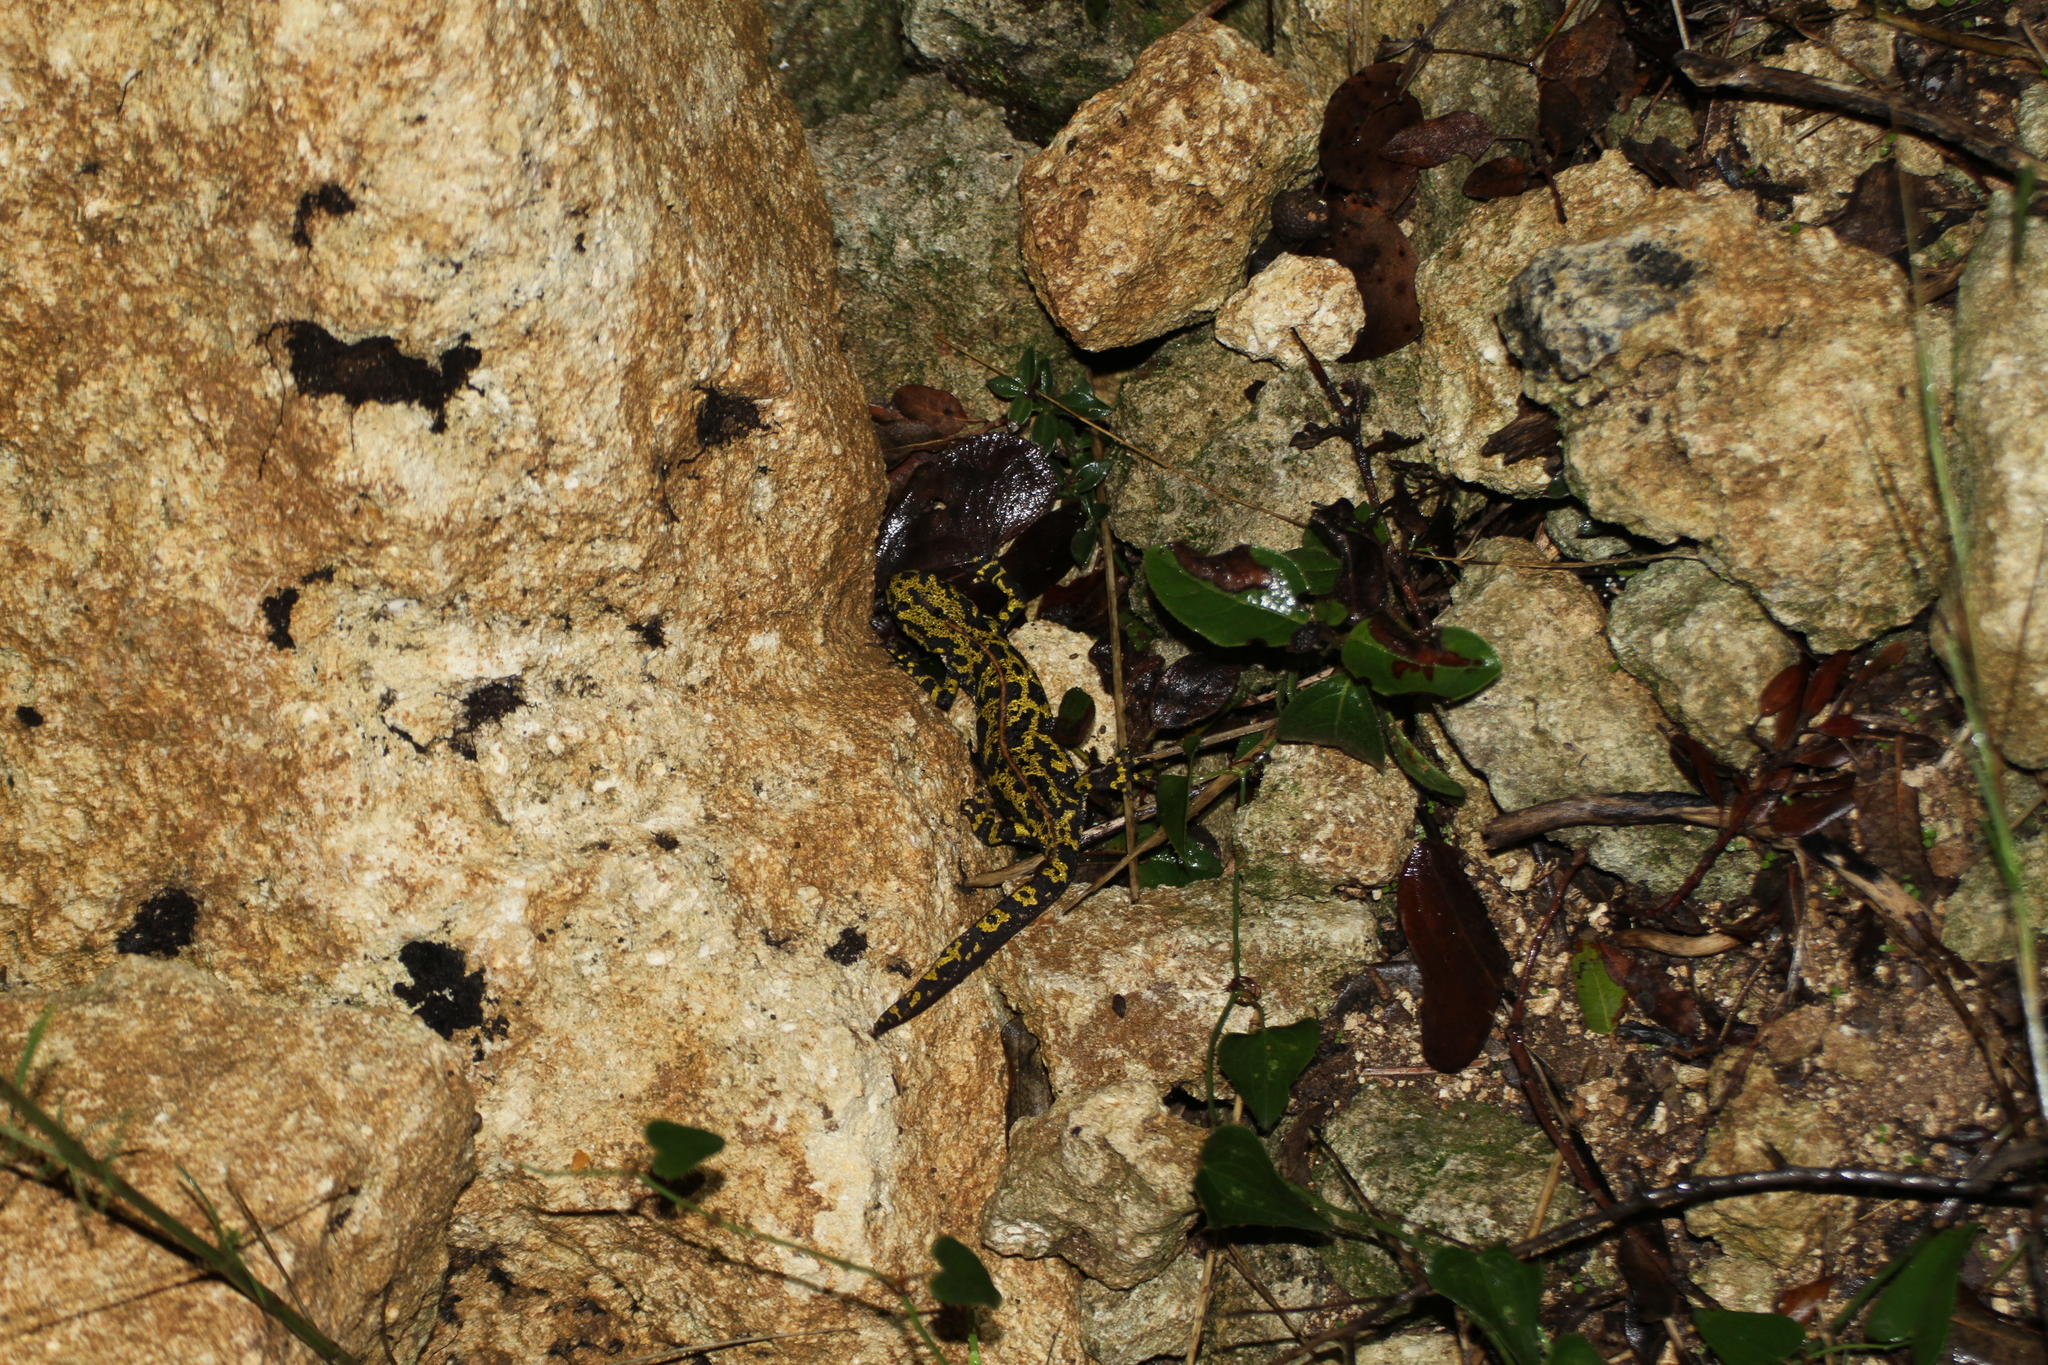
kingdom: Animalia
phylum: Chordata
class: Amphibia
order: Caudata
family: Salamandridae
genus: Triturus
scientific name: Triturus marmoratus
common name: Marbled newt
